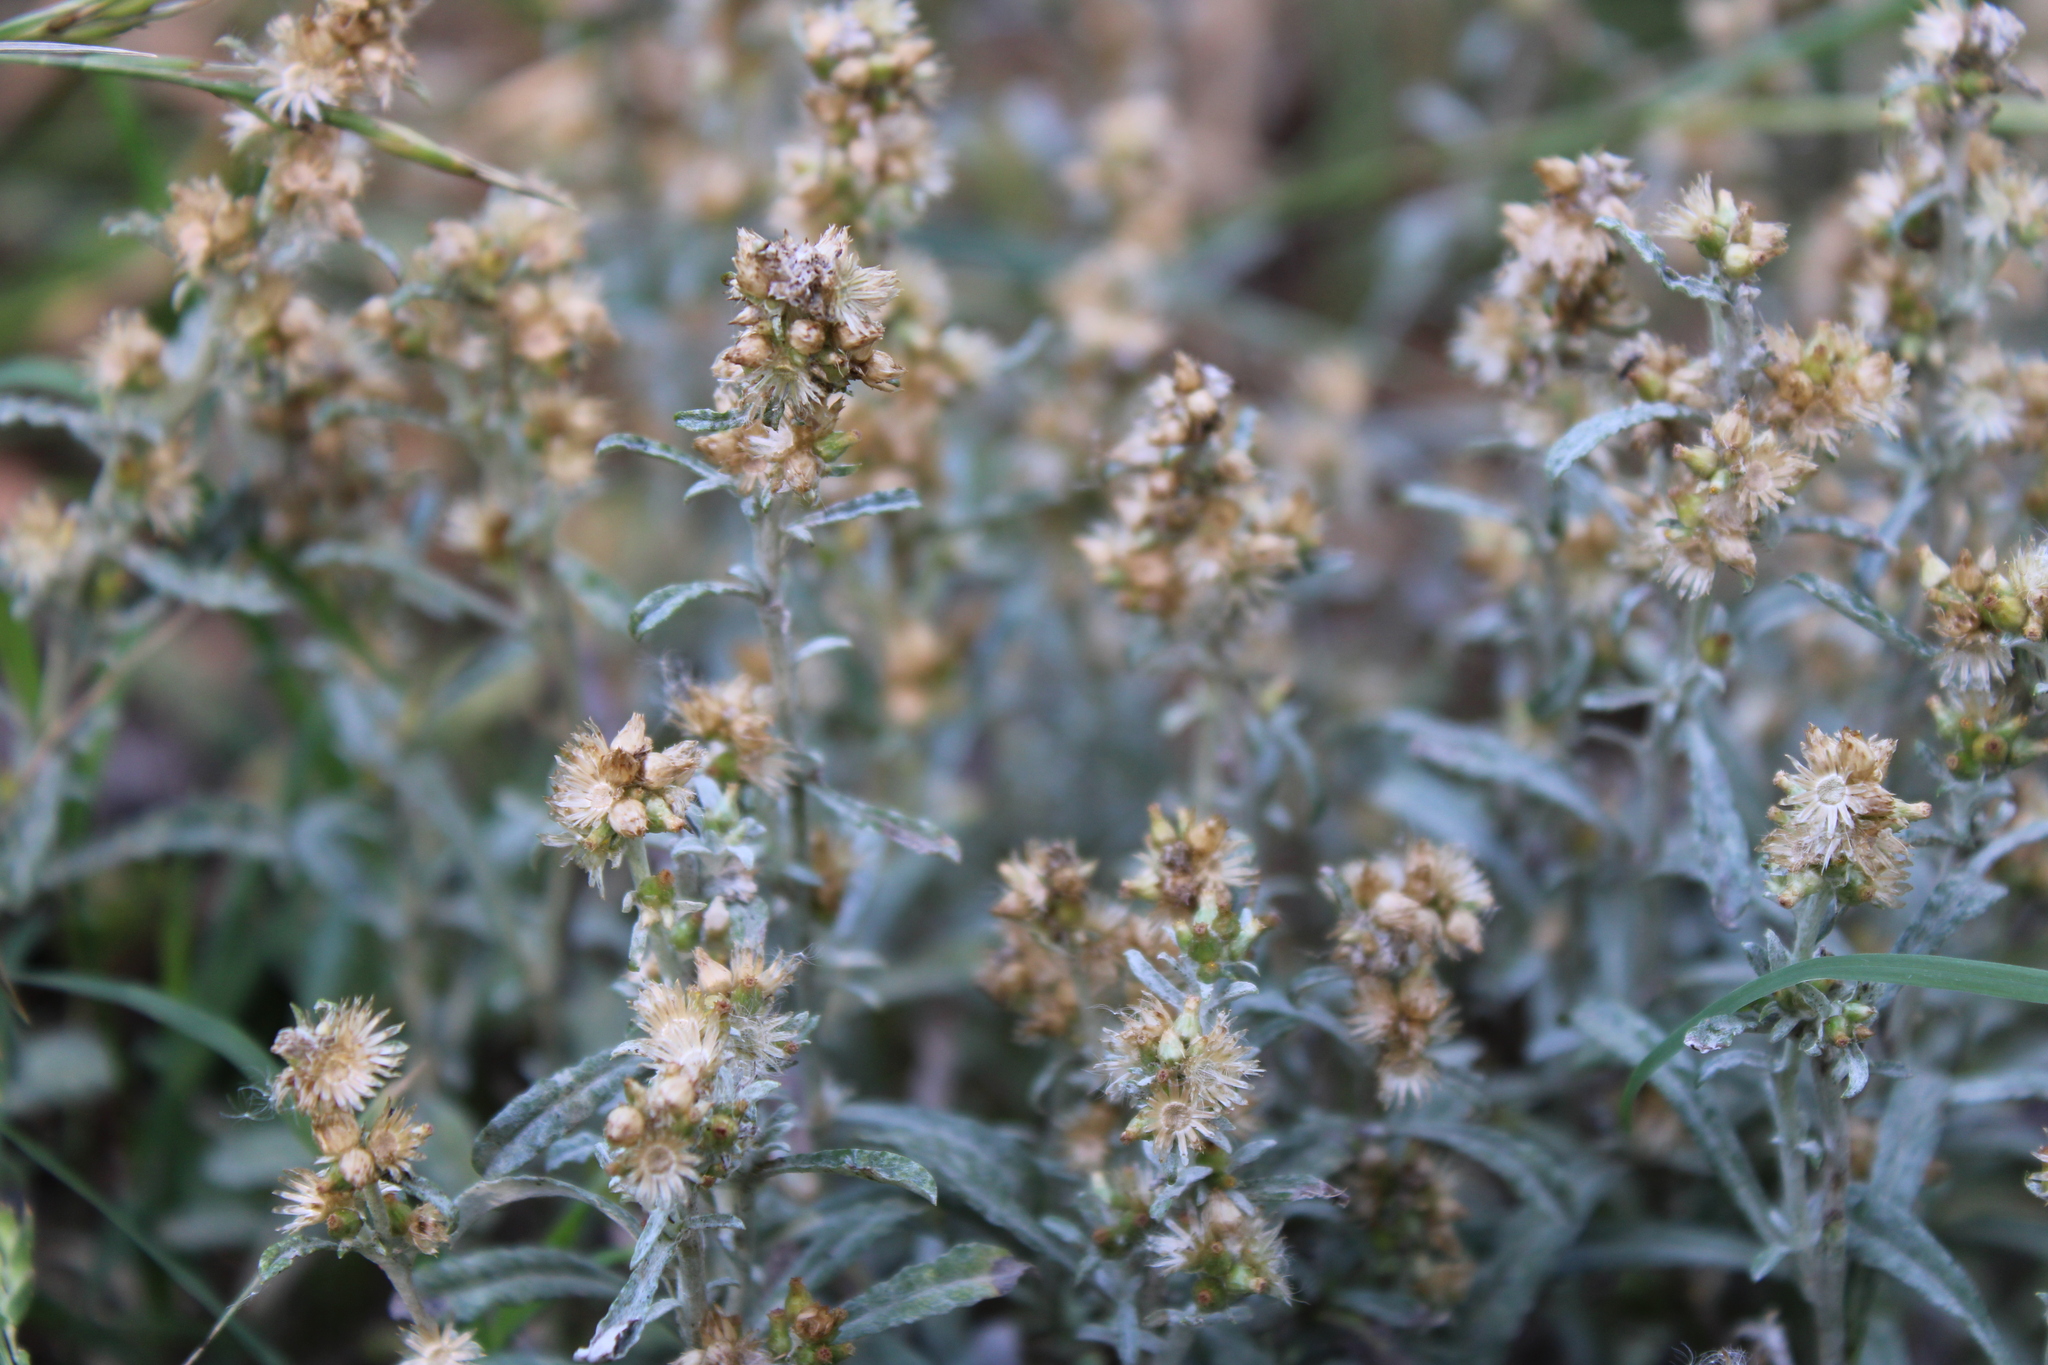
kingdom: Plantae
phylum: Tracheophyta
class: Magnoliopsida
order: Asterales
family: Asteraceae
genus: Gamochaeta
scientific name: Gamochaeta americana
